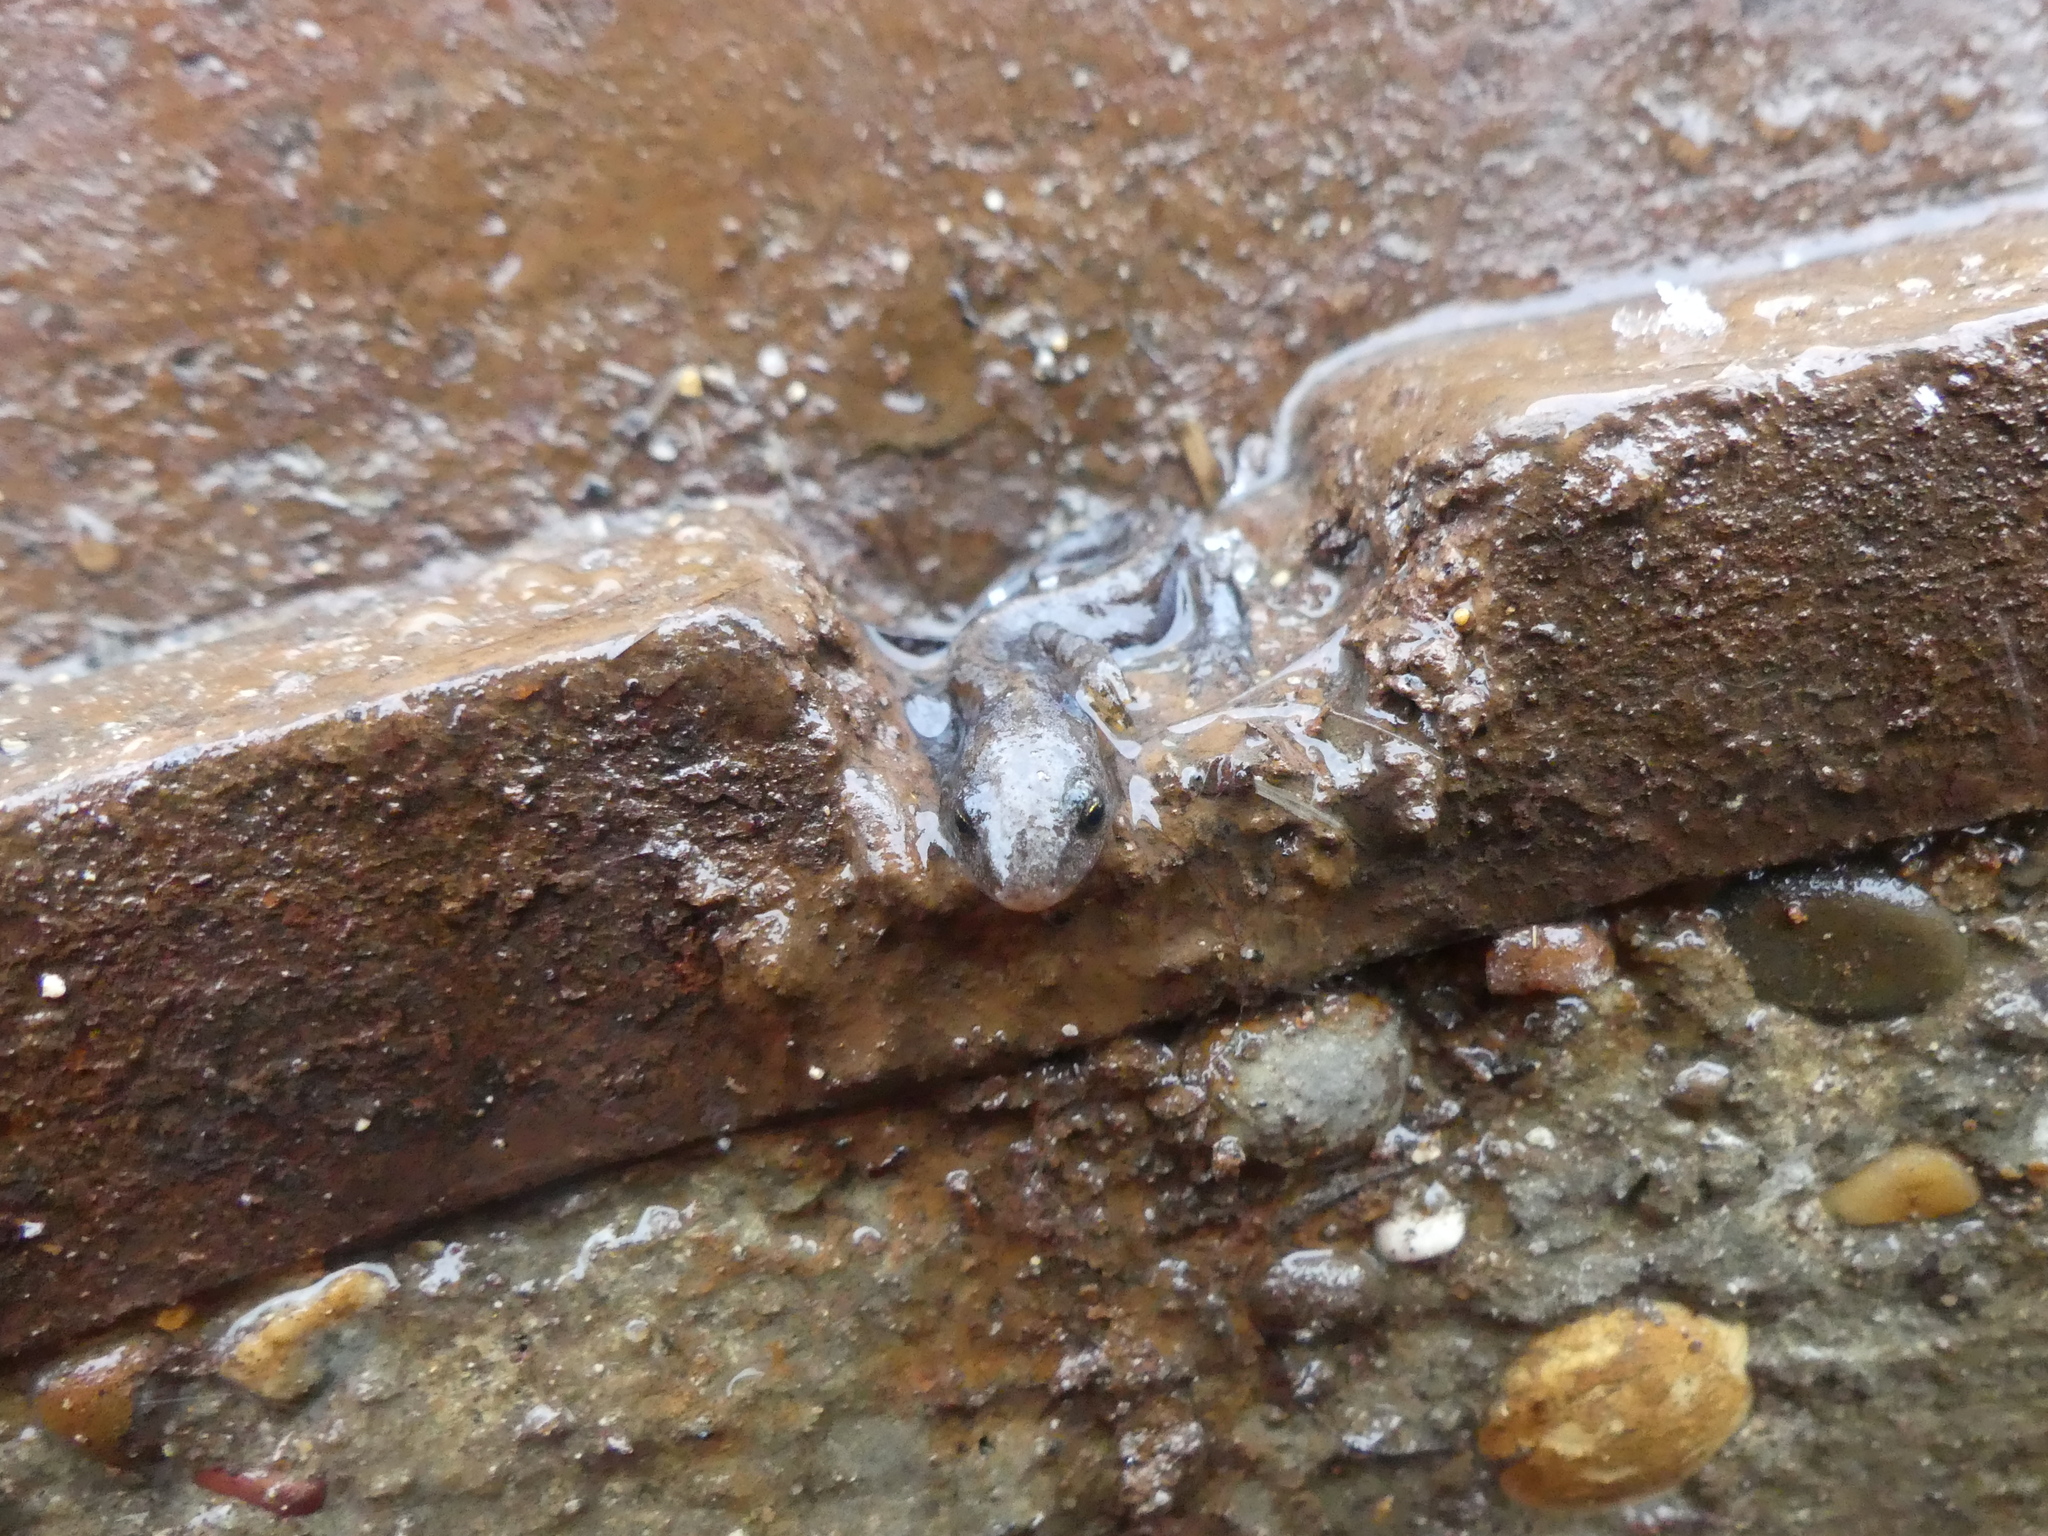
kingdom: Animalia
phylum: Chordata
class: Amphibia
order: Caudata
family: Salamandridae
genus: Ichthyosaura
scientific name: Ichthyosaura alpestris
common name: Alpine newt
